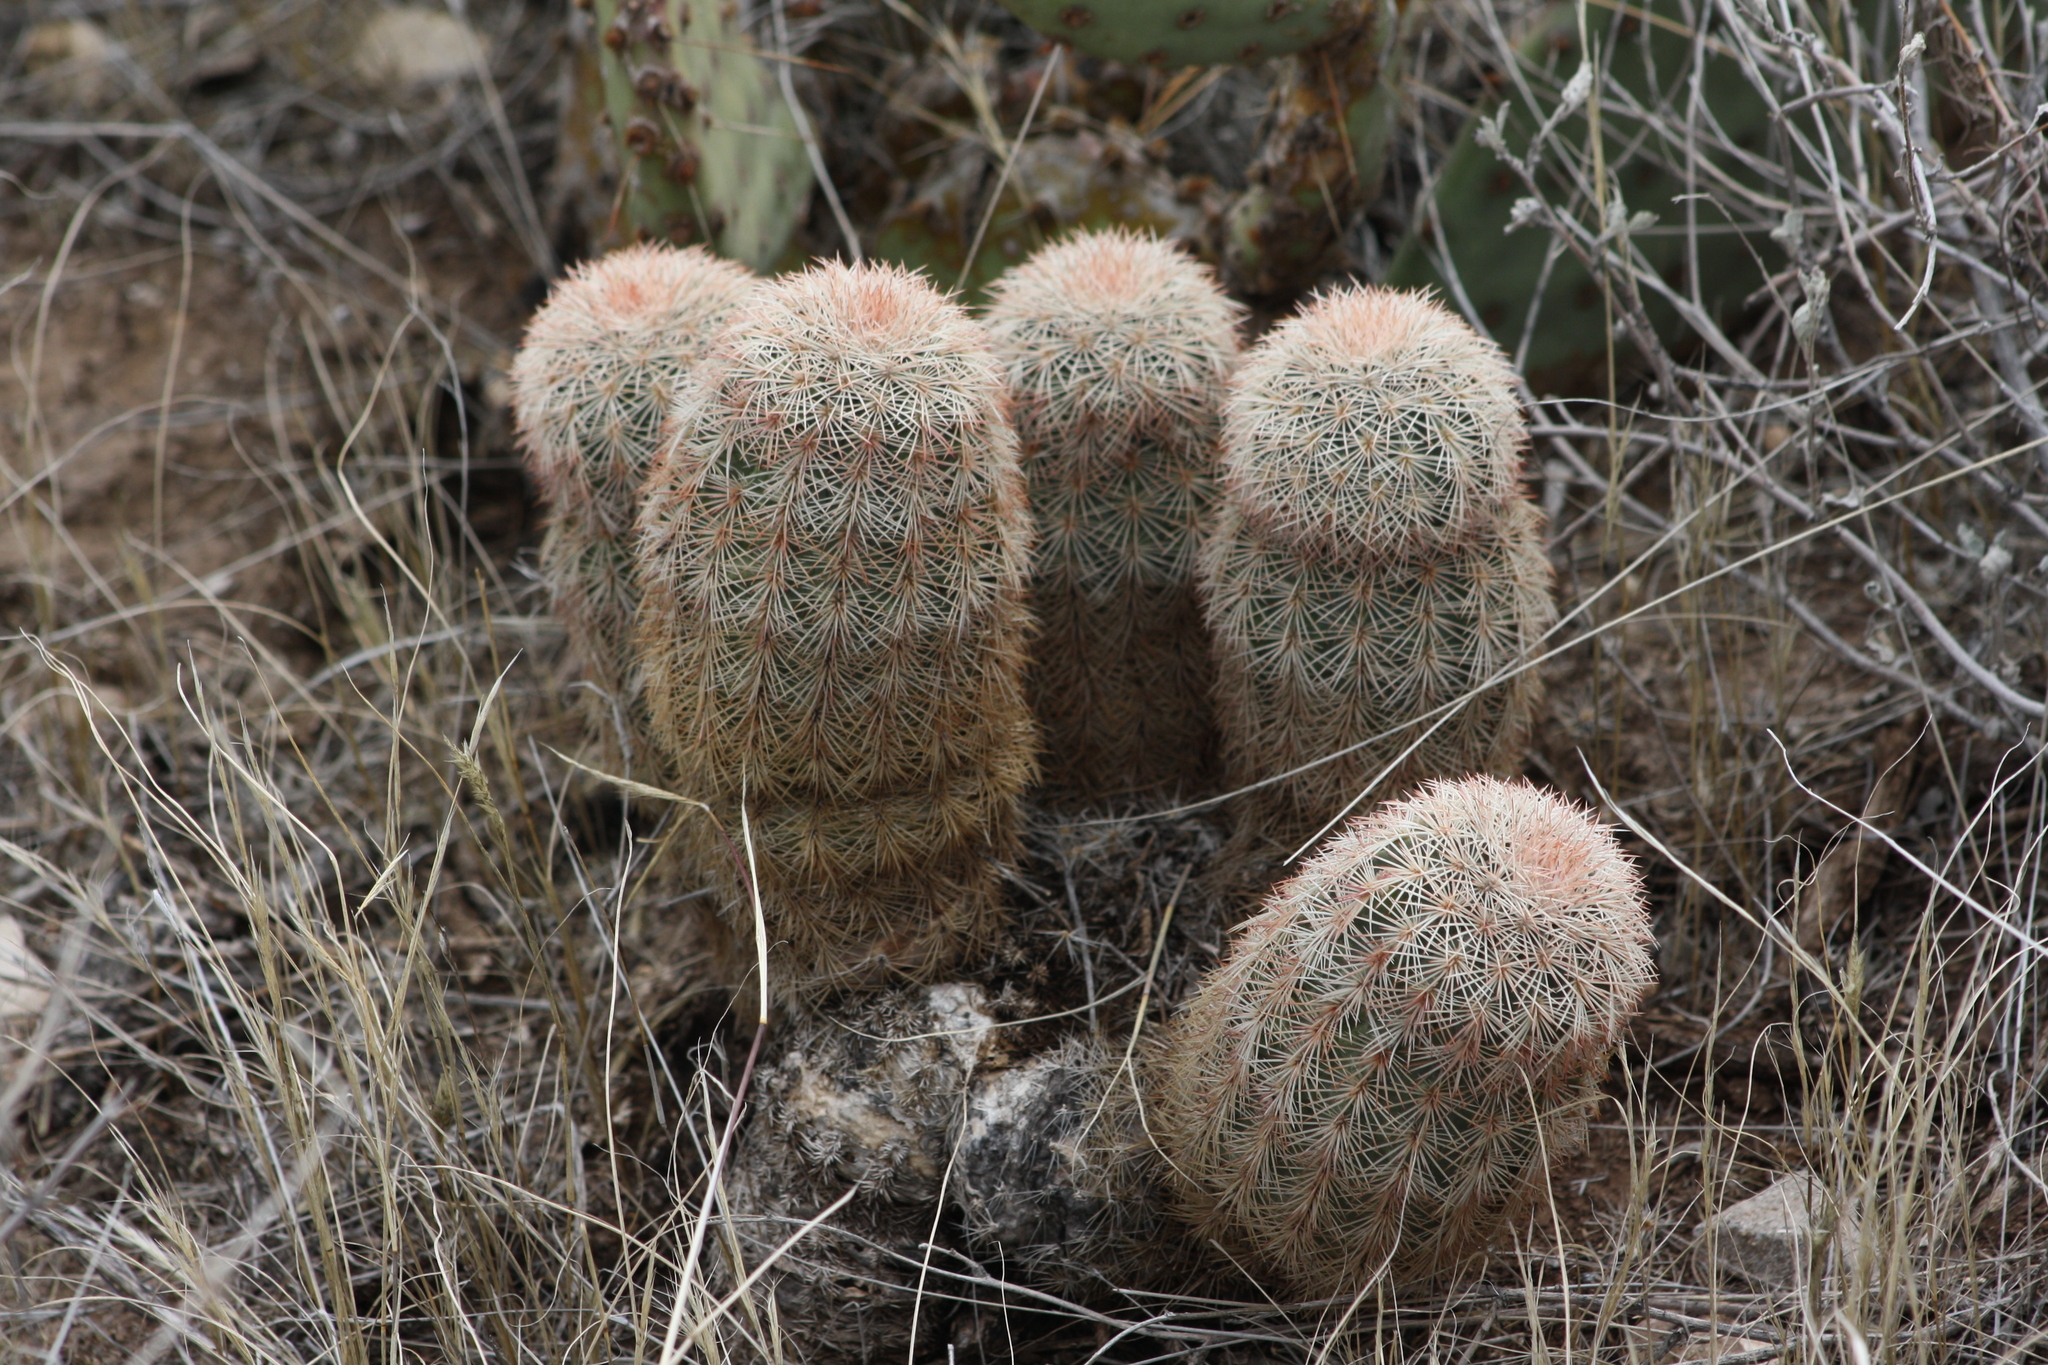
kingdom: Plantae
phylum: Tracheophyta
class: Magnoliopsida
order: Caryophyllales
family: Cactaceae
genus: Echinocereus
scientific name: Echinocereus dasyacanthus
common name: Spiny hedgehog cactus
